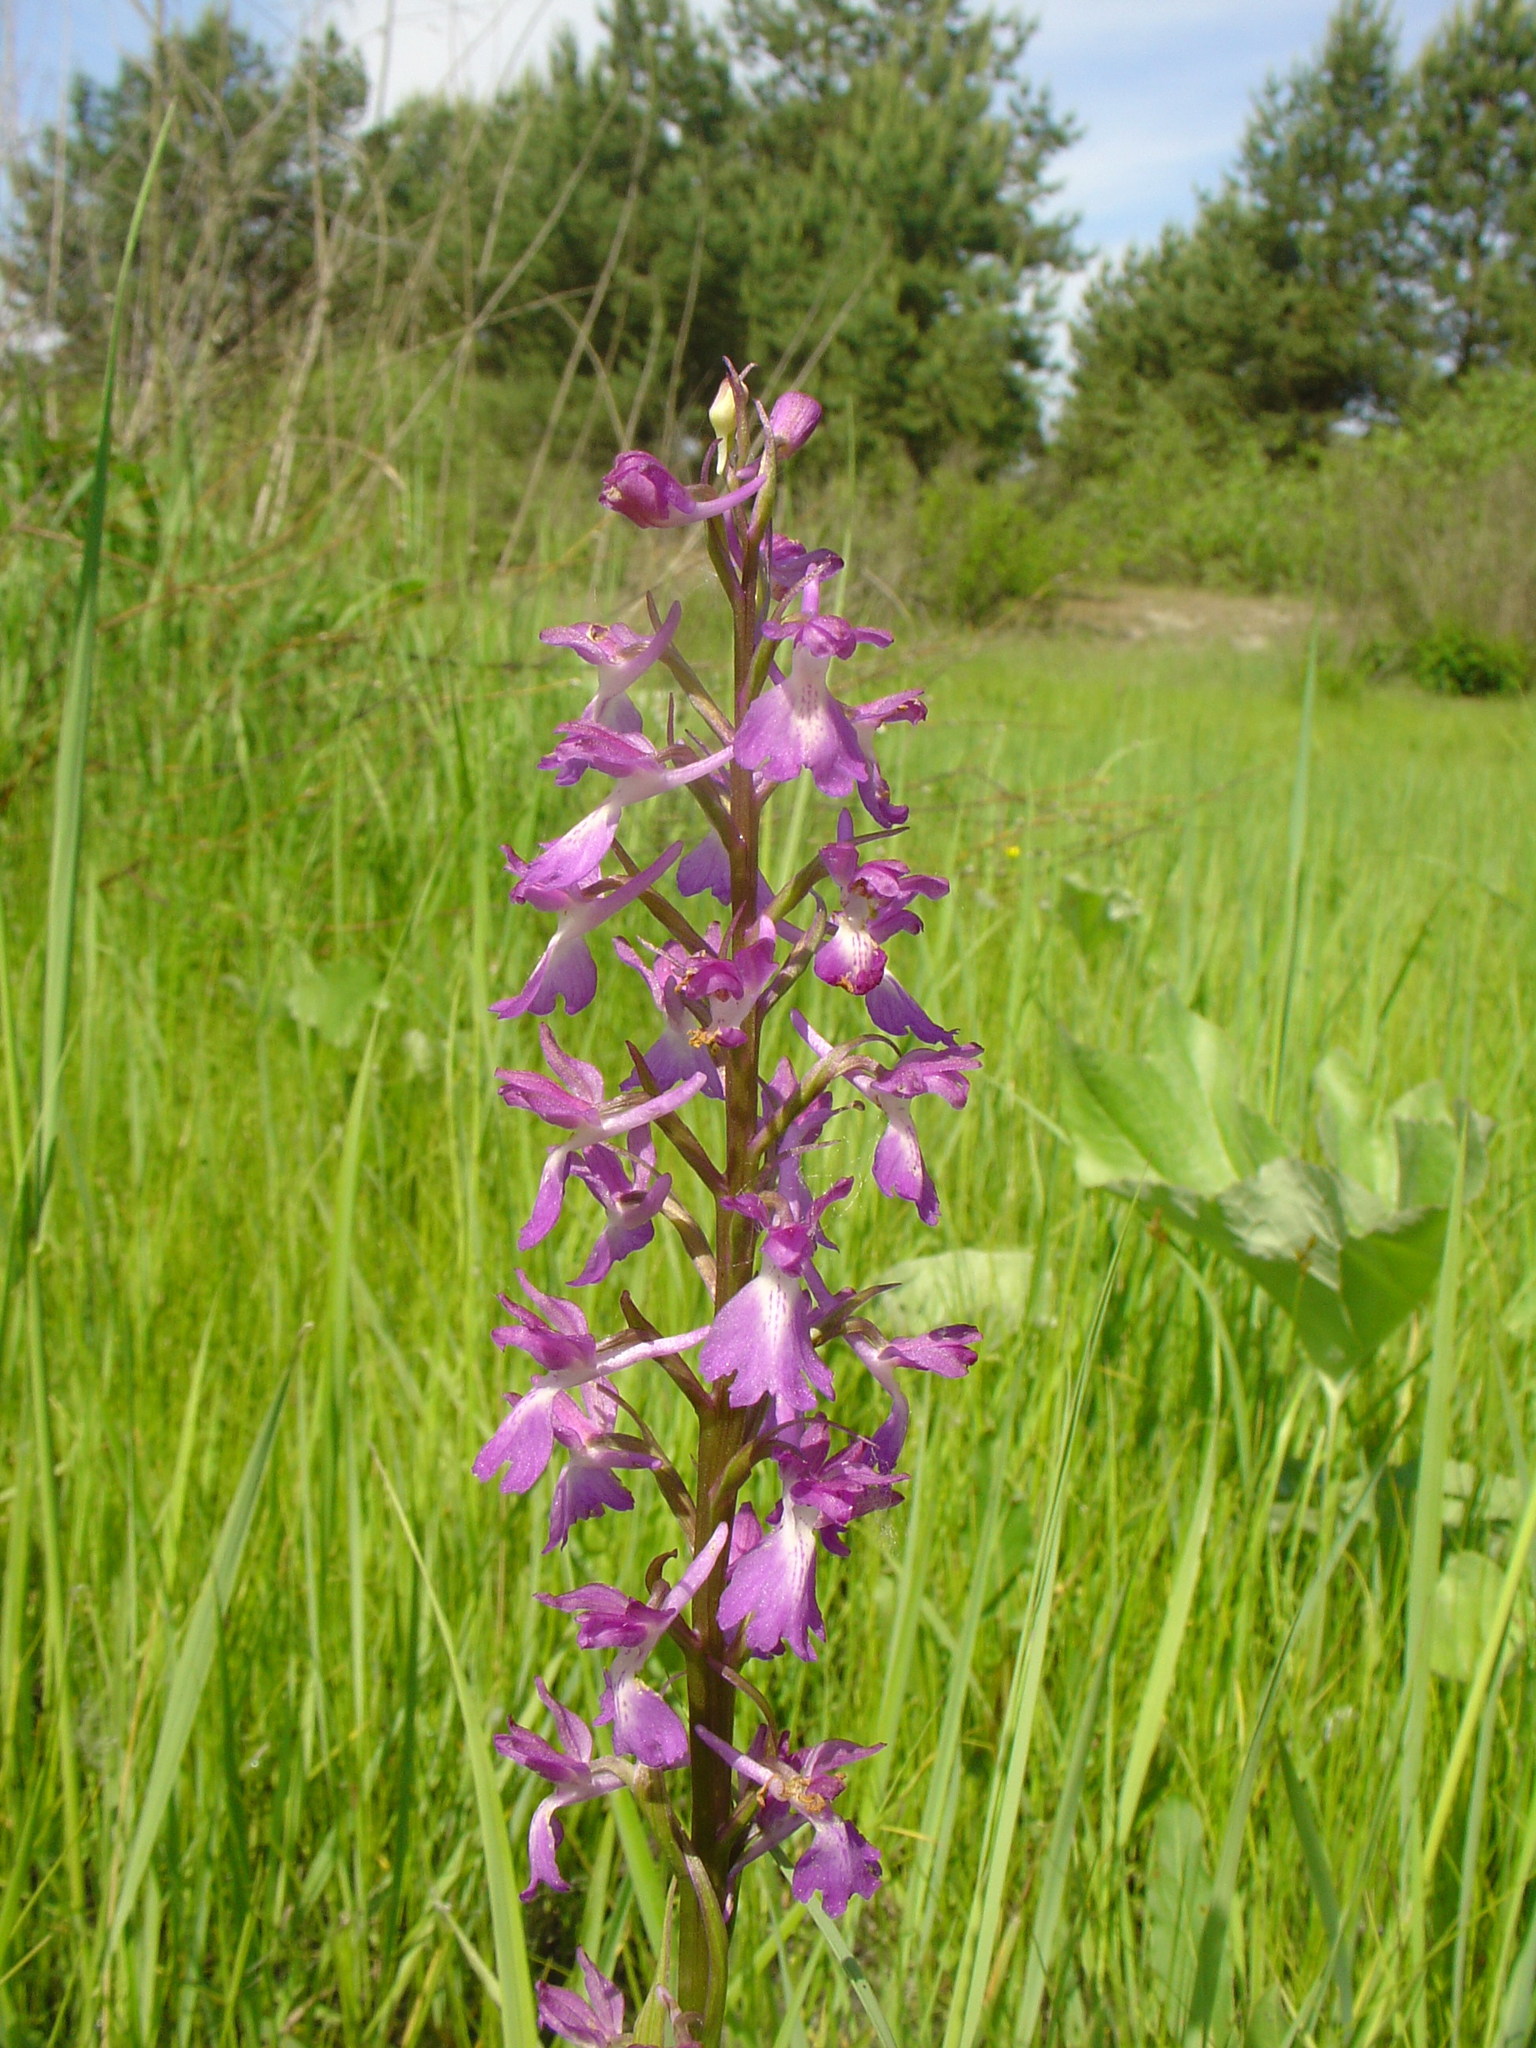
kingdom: Plantae
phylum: Tracheophyta
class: Liliopsida
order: Asparagales
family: Orchidaceae
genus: Anacamptis
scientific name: Anacamptis laxiflora
